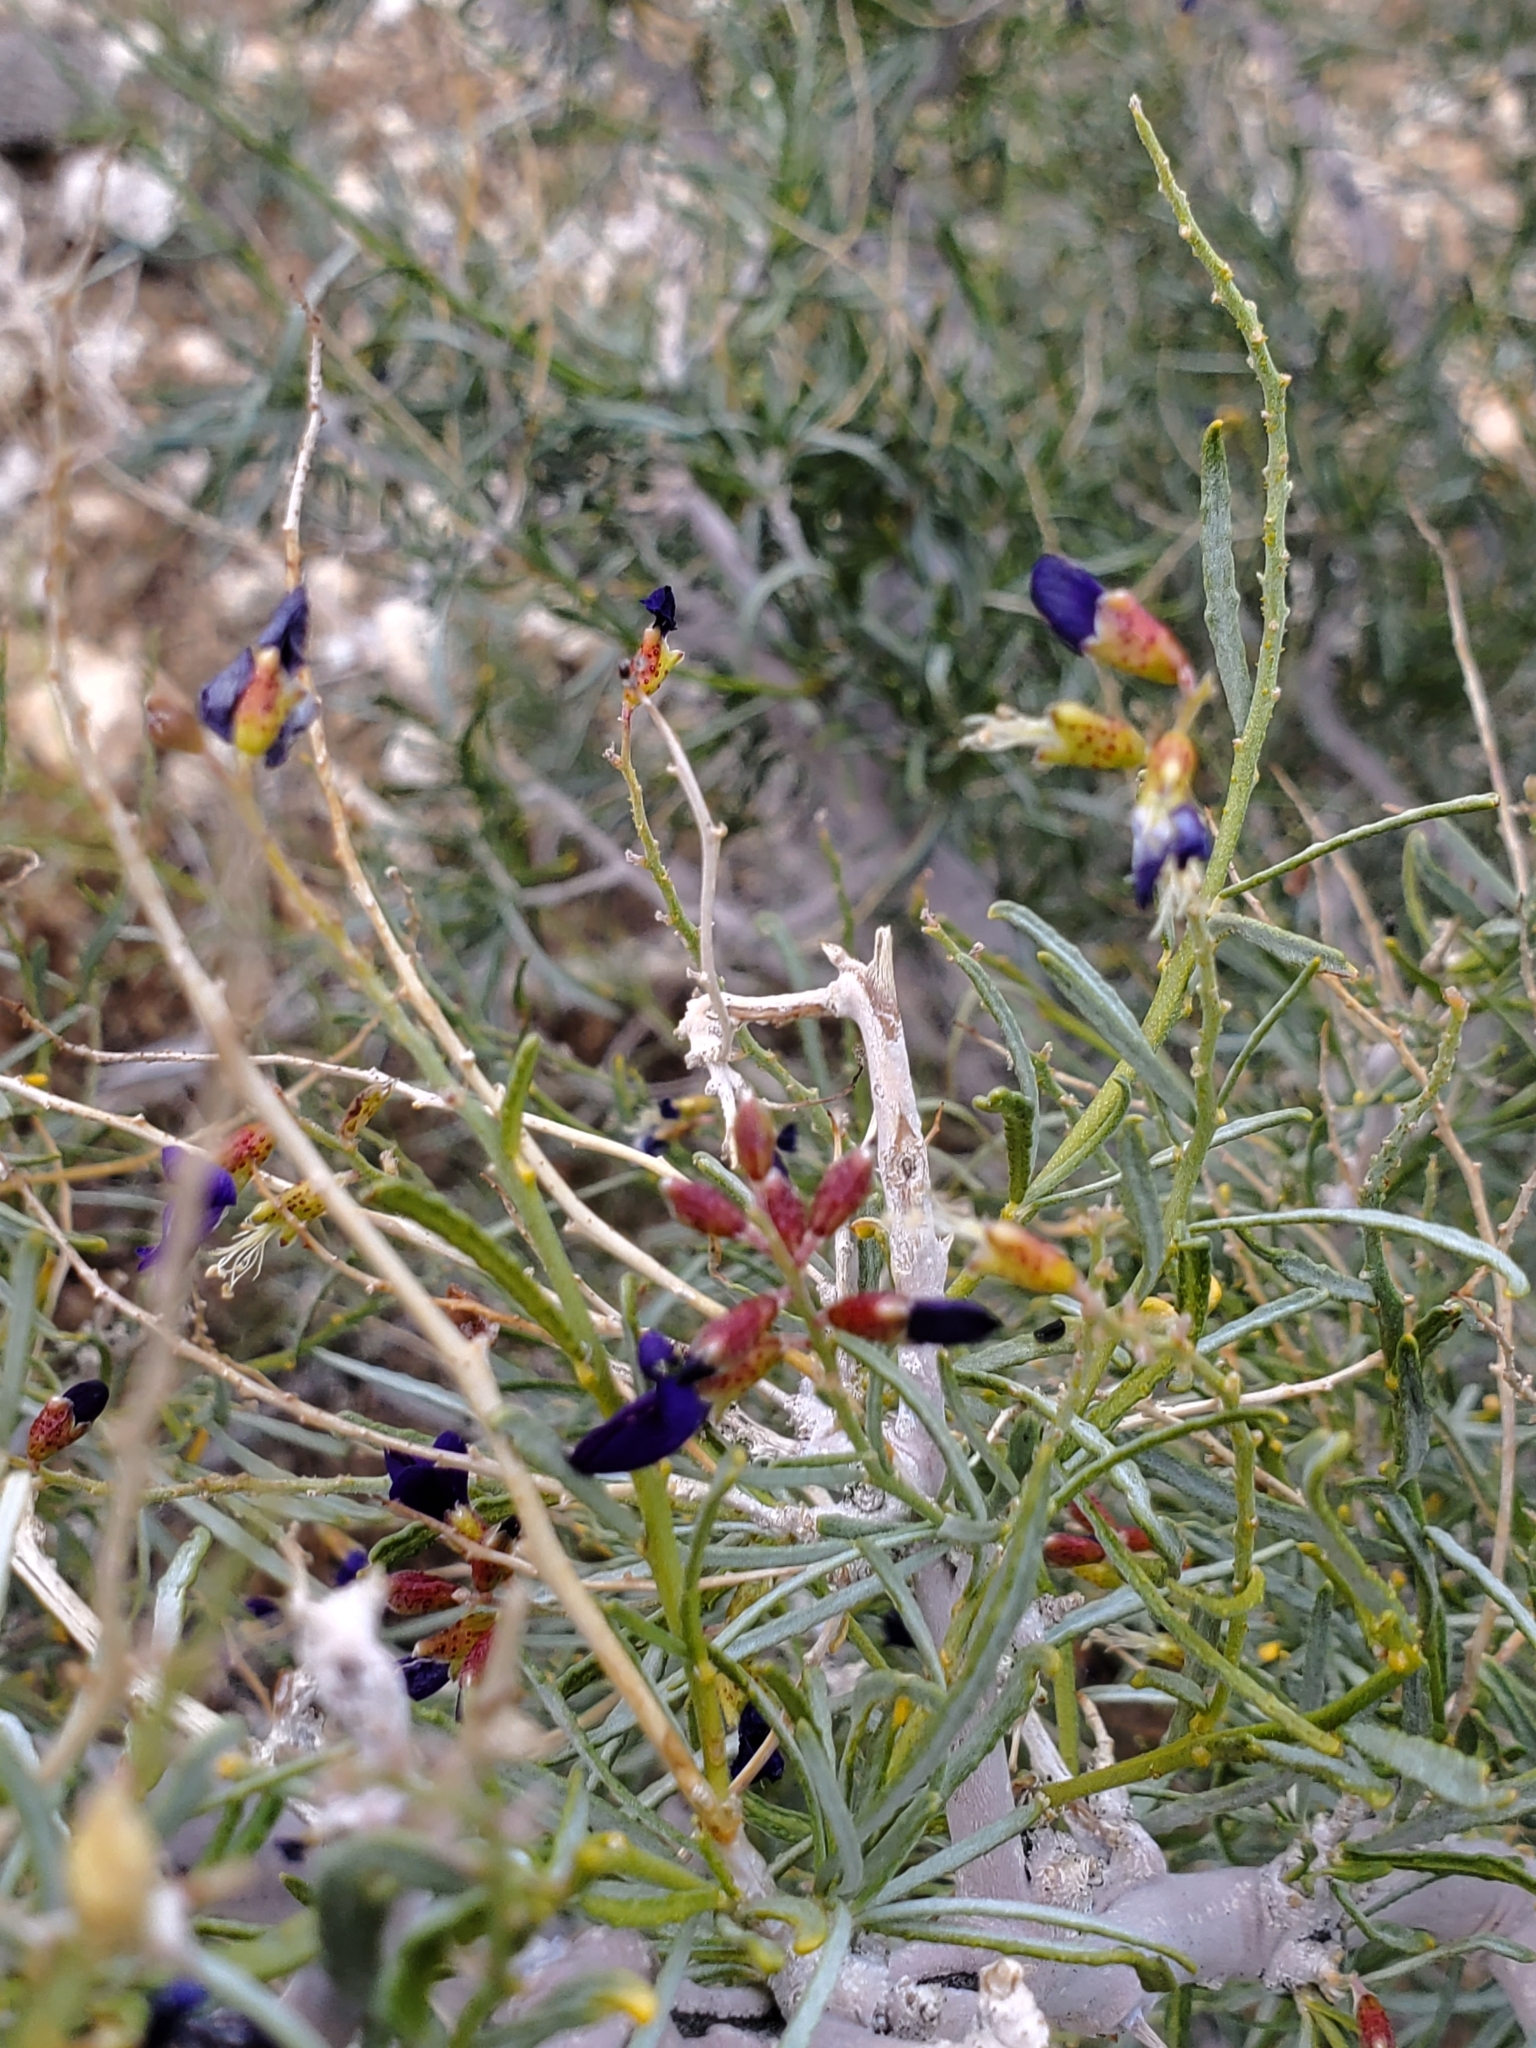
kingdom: Plantae
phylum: Tracheophyta
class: Magnoliopsida
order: Fabales
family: Fabaceae
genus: Psorothamnus
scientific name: Psorothamnus schottii
